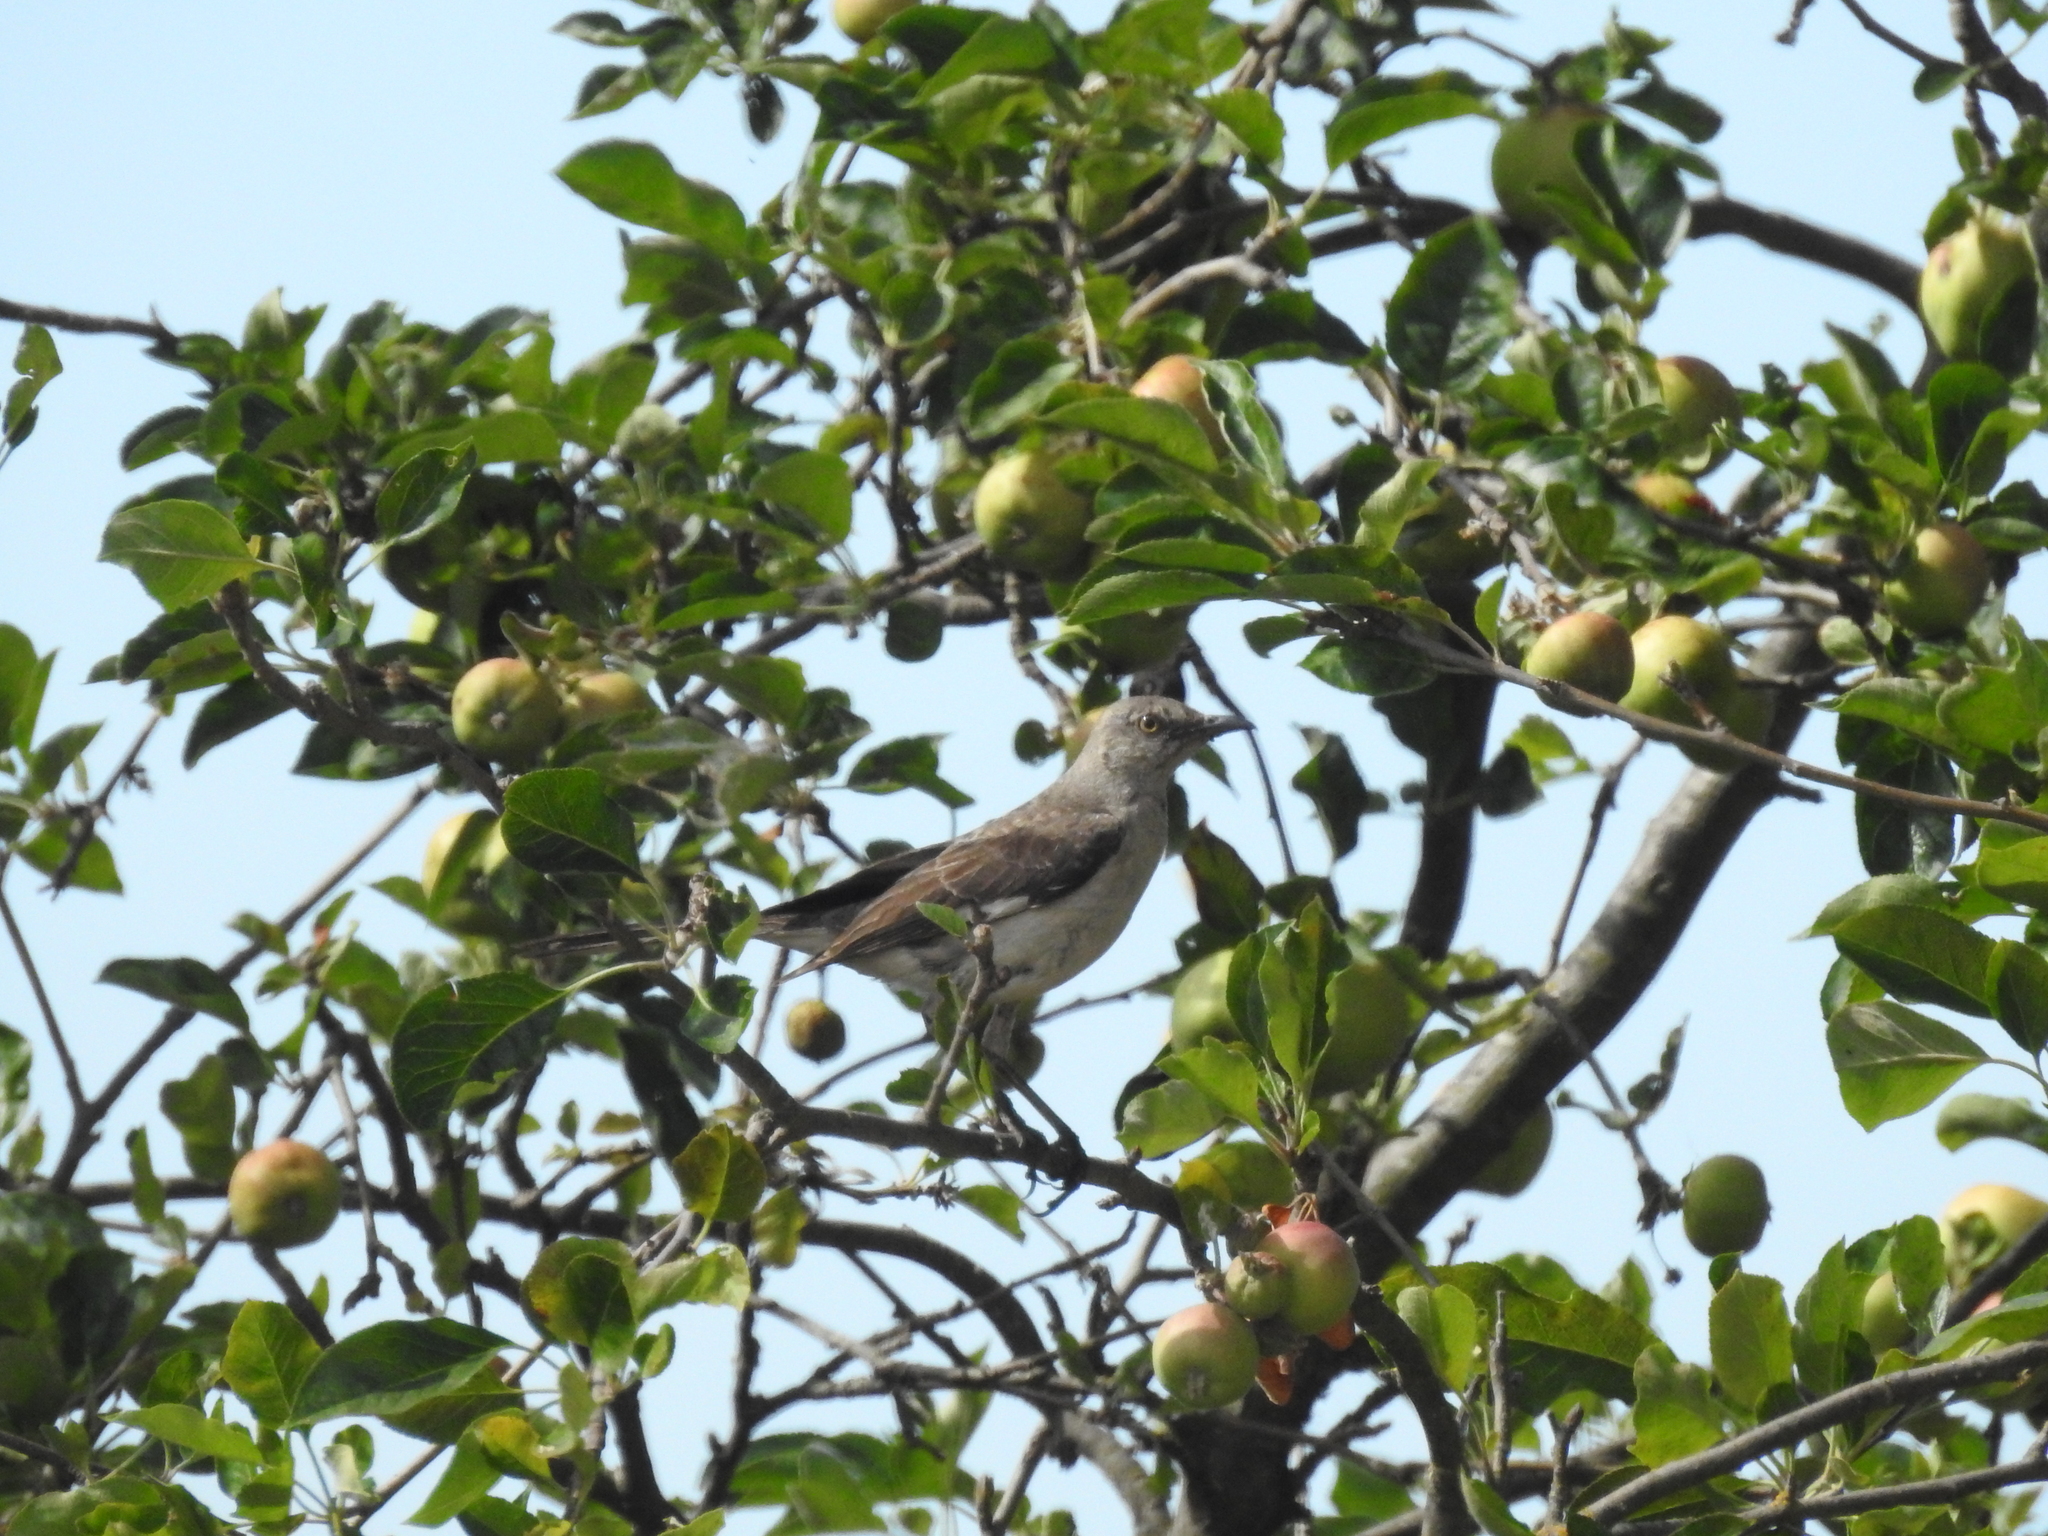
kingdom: Animalia
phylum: Chordata
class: Aves
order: Passeriformes
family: Mimidae
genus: Mimus
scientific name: Mimus polyglottos
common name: Northern mockingbird
